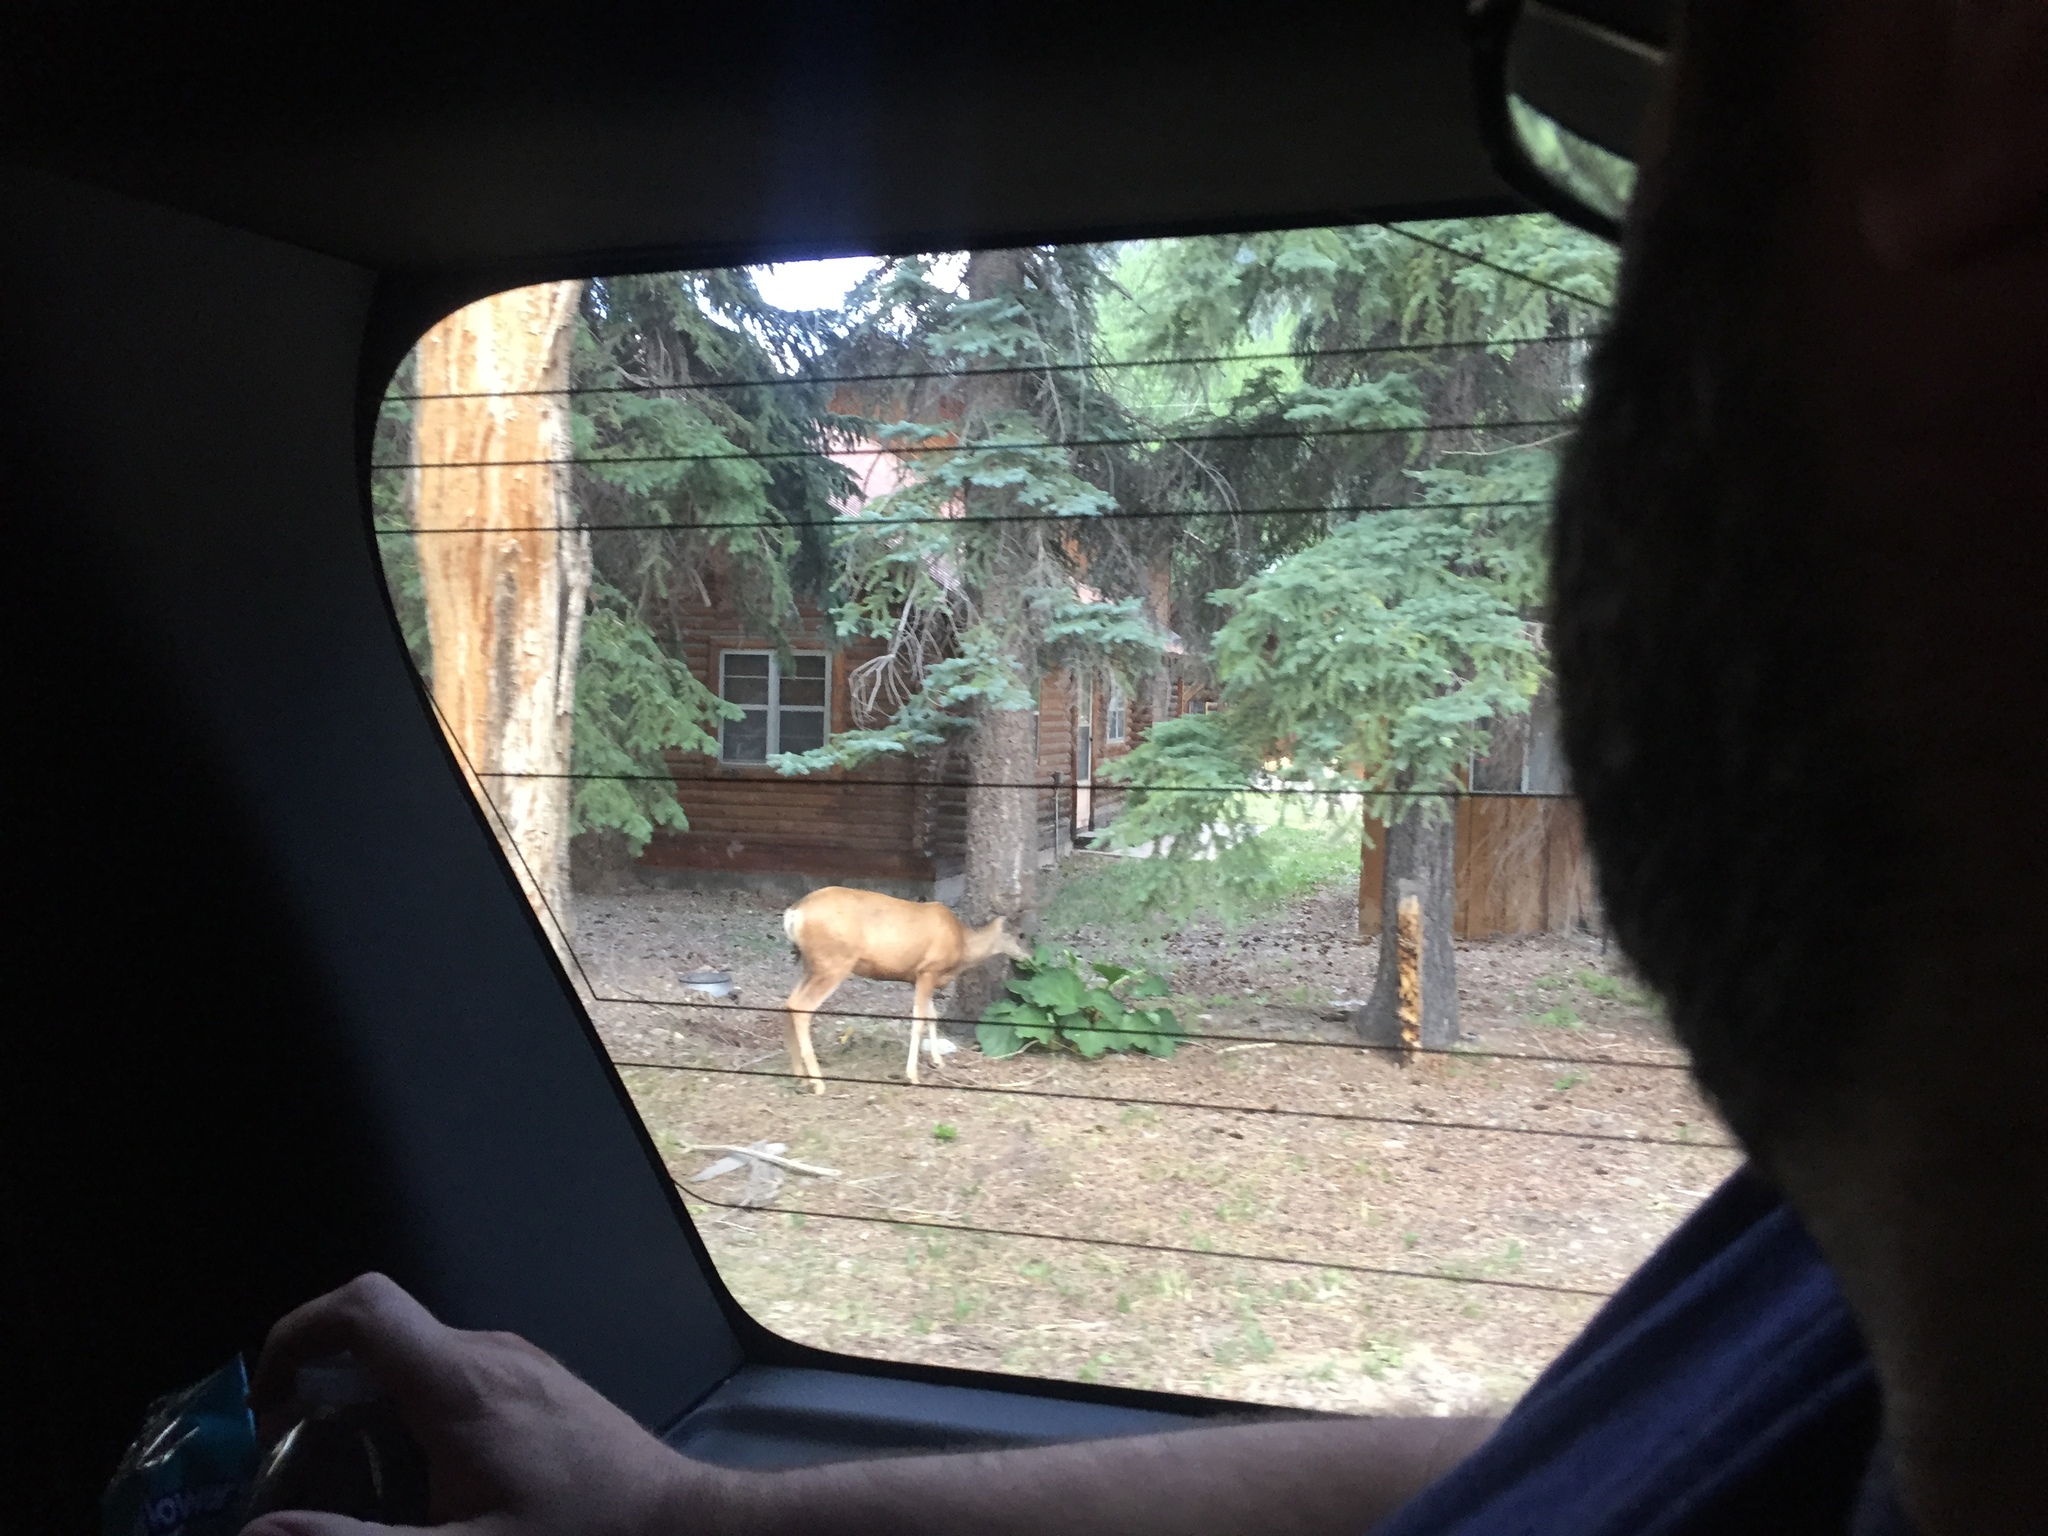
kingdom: Animalia
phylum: Chordata
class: Mammalia
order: Artiodactyla
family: Cervidae
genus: Odocoileus
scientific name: Odocoileus hemionus
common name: Mule deer
